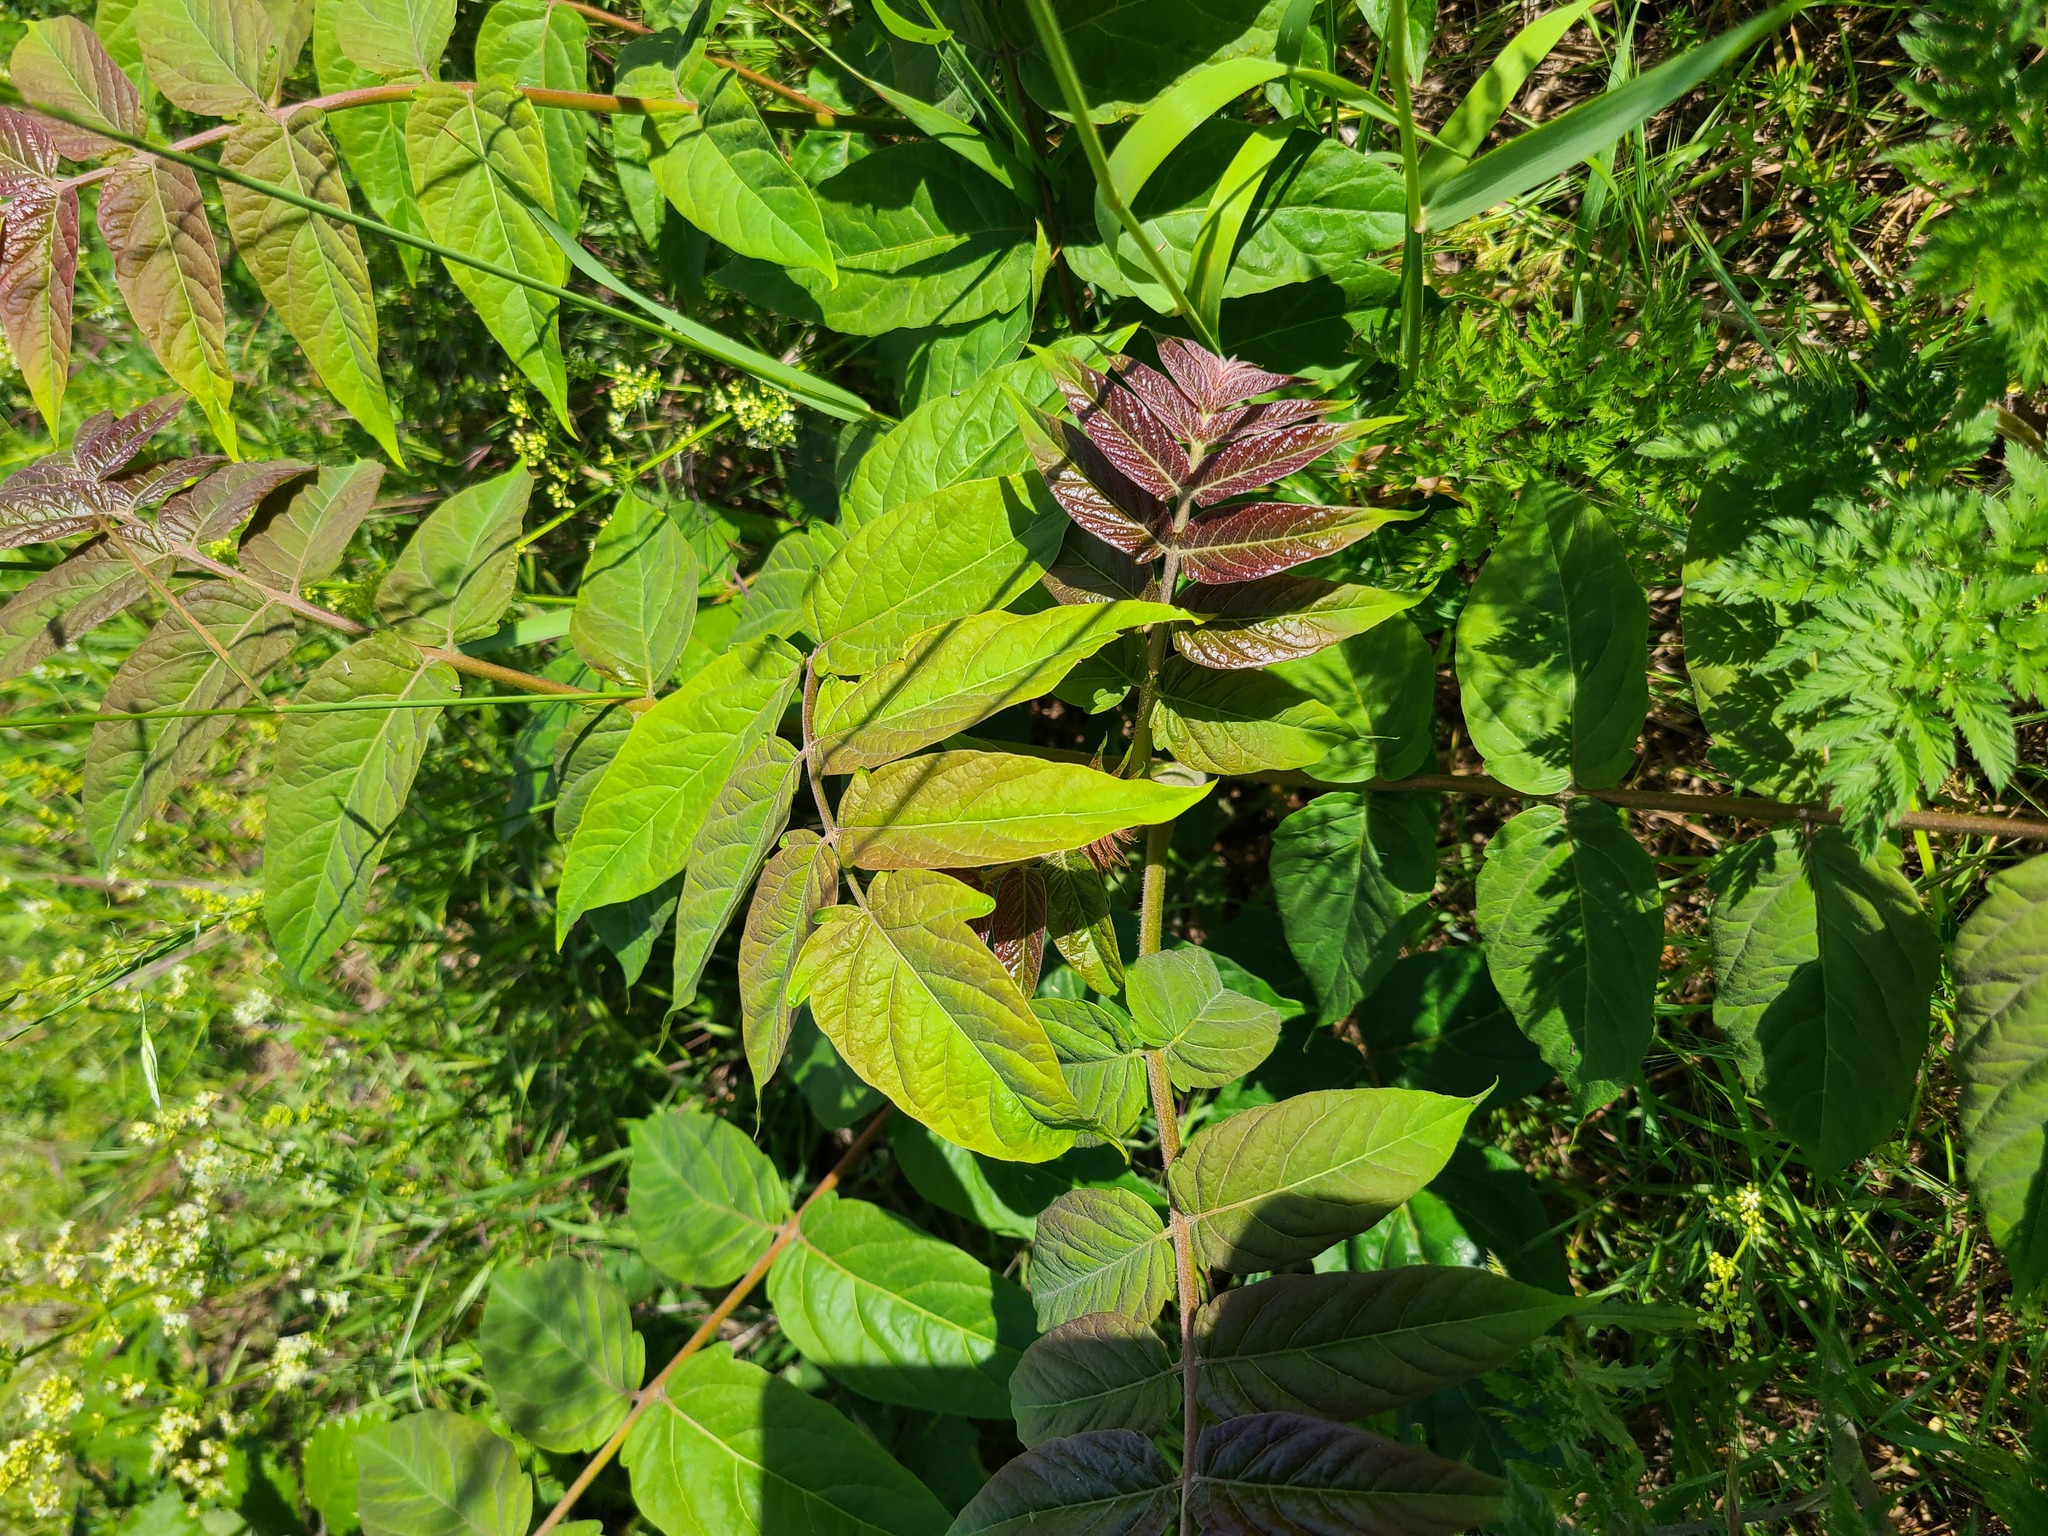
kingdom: Plantae
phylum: Tracheophyta
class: Magnoliopsida
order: Sapindales
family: Simaroubaceae
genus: Ailanthus
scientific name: Ailanthus altissima
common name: Tree-of-heaven
